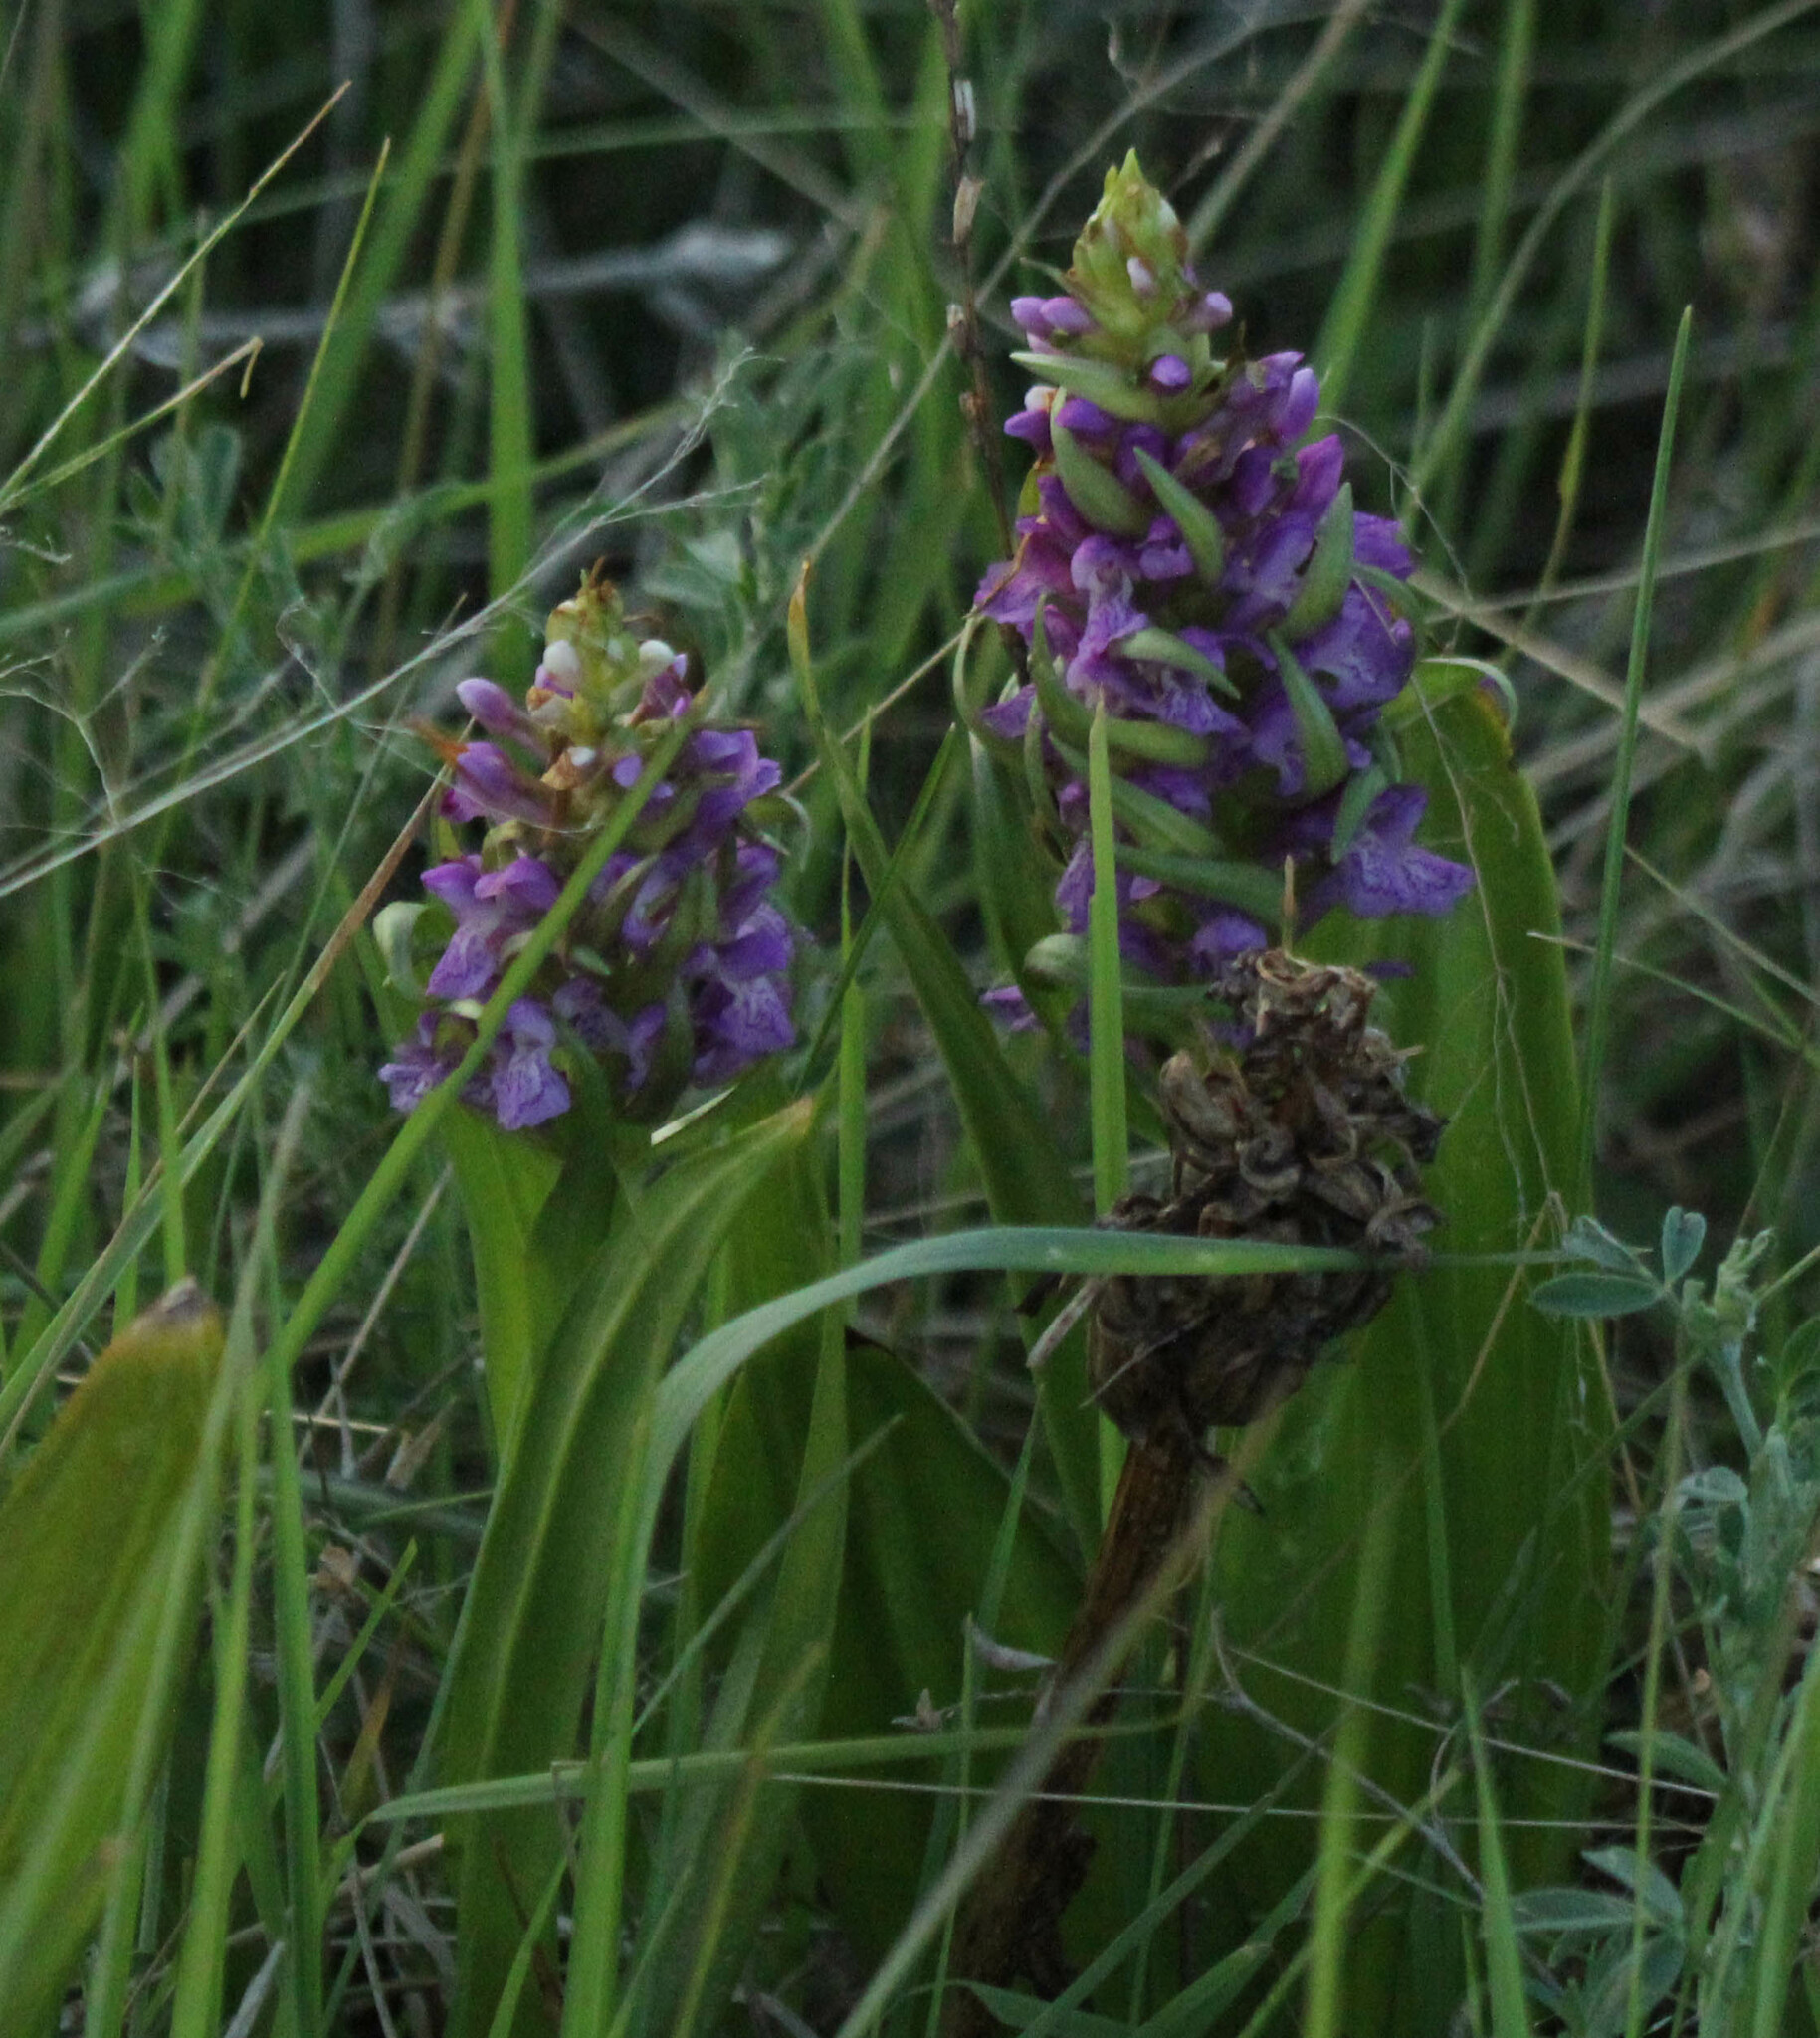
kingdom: Plantae
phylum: Tracheophyta
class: Liliopsida
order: Asparagales
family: Orchidaceae
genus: Dactylorhiza
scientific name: Dactylorhiza incarnata
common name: Early marsh-orchid
